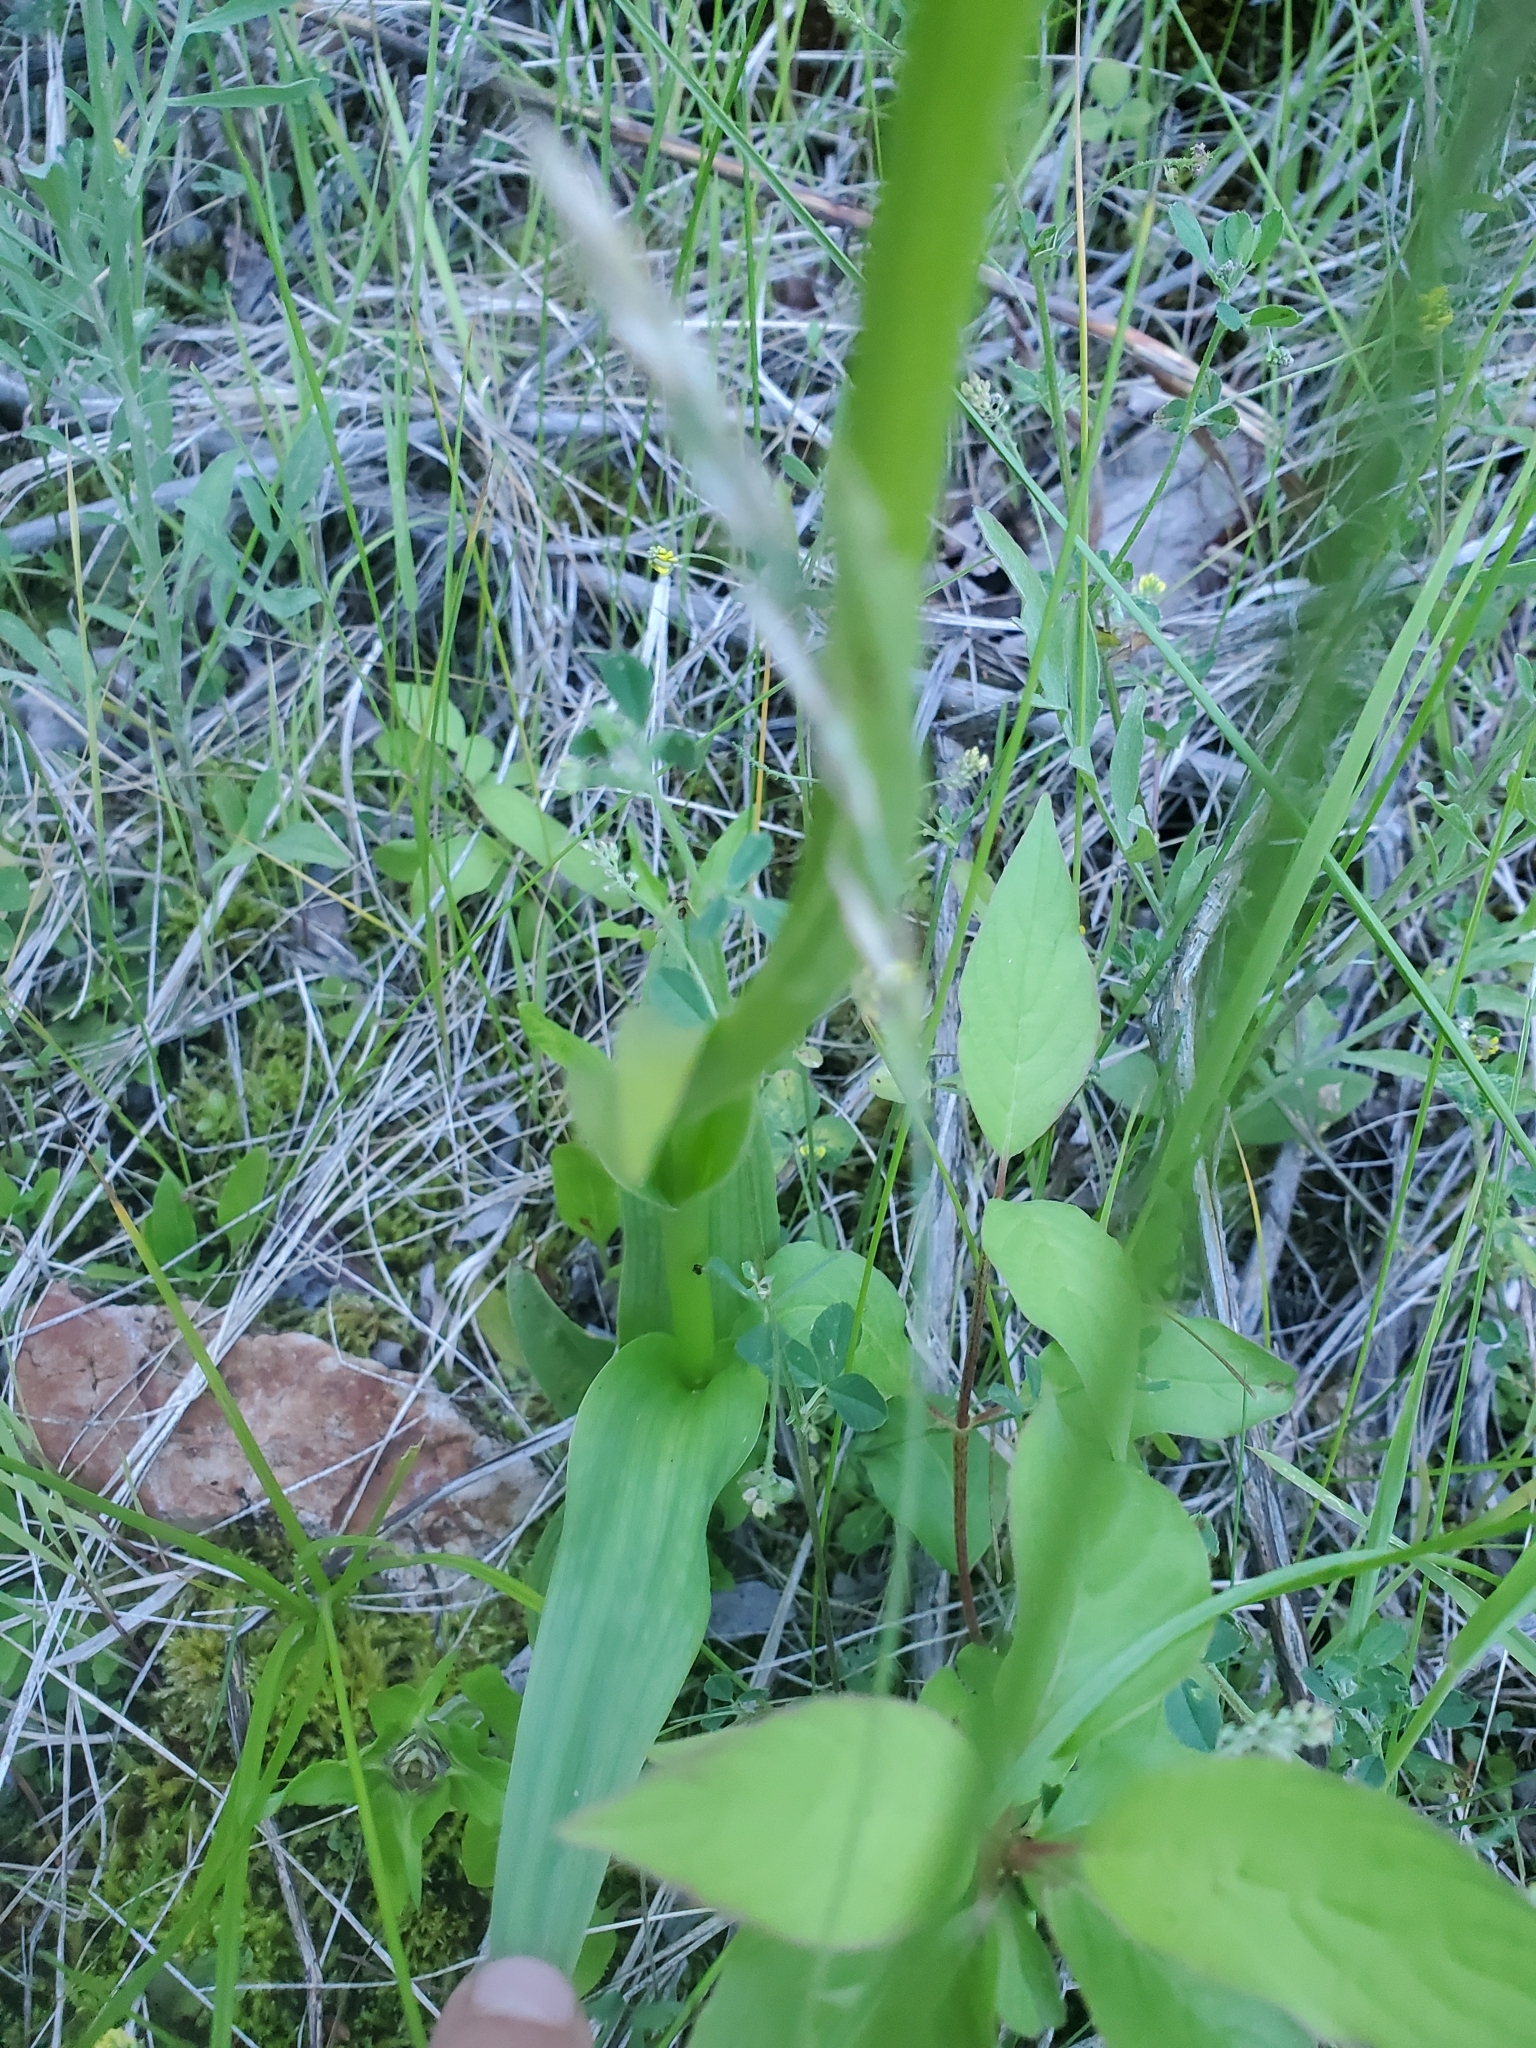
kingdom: Plantae
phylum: Tracheophyta
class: Liliopsida
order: Asparagales
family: Orchidaceae
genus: Platanthera
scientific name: Platanthera dilatata
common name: Bog candles
